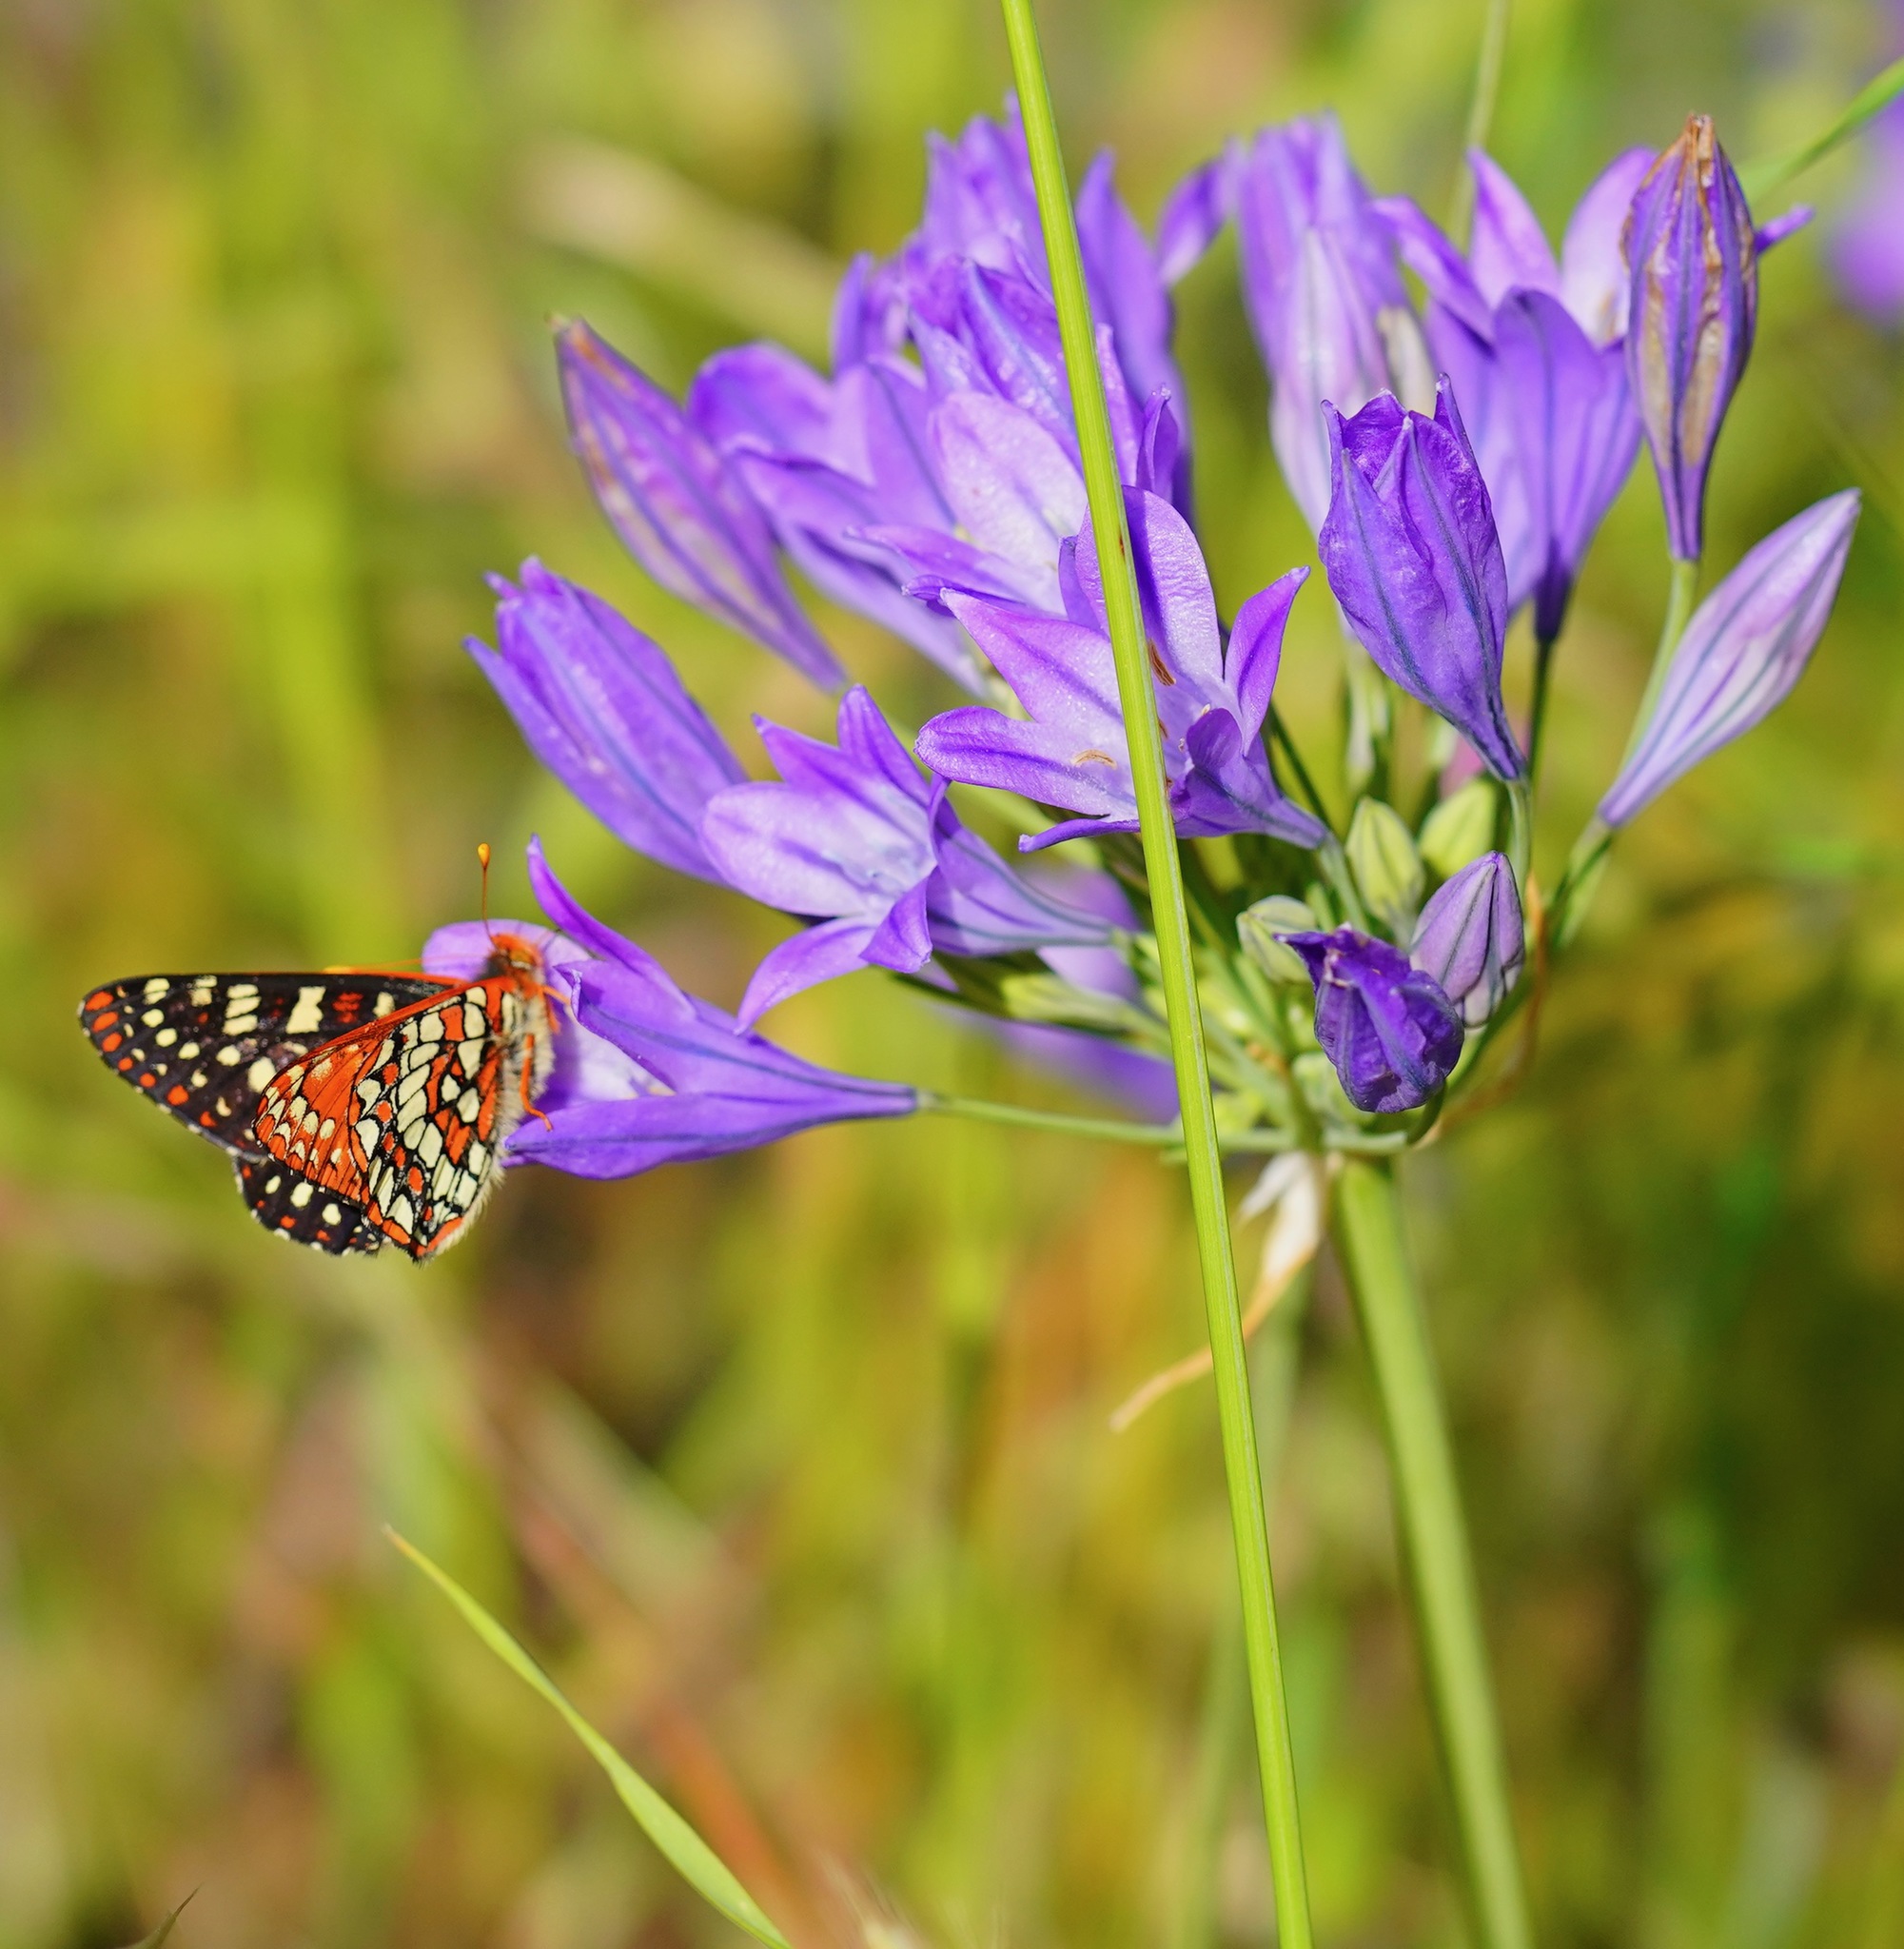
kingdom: Animalia
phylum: Arthropoda
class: Insecta
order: Lepidoptera
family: Nymphalidae
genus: Occidryas
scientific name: Occidryas chalcedona
